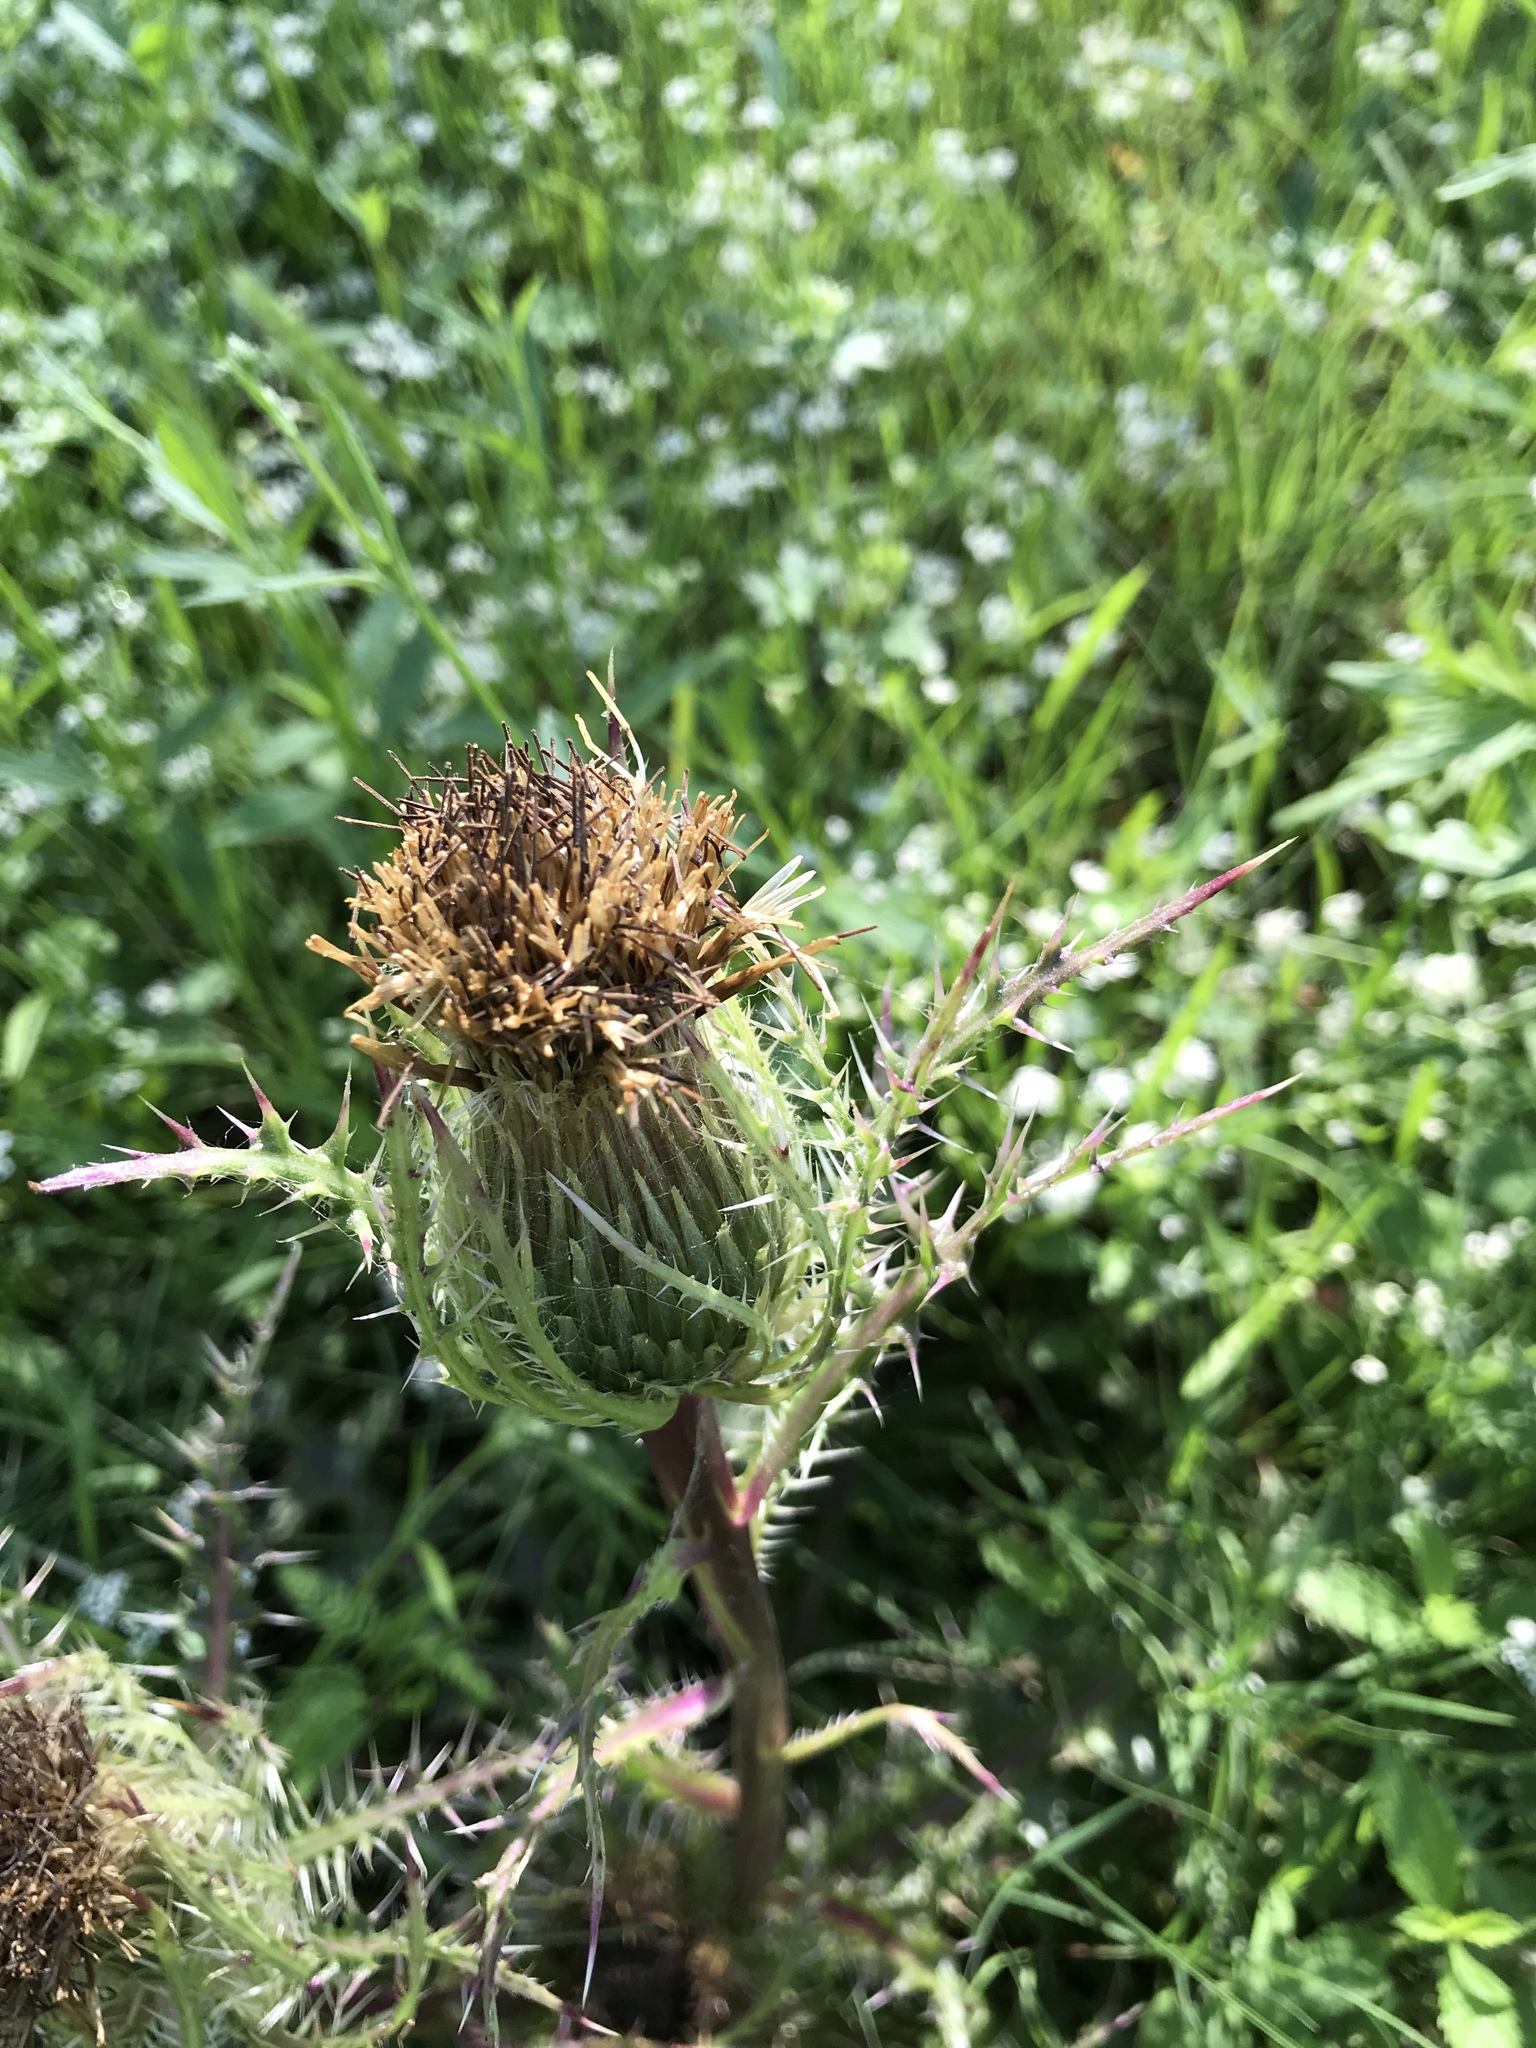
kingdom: Plantae
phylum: Tracheophyta
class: Magnoliopsida
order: Asterales
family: Asteraceae
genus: Cirsium
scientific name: Cirsium horridulum
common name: Bristly thistle
